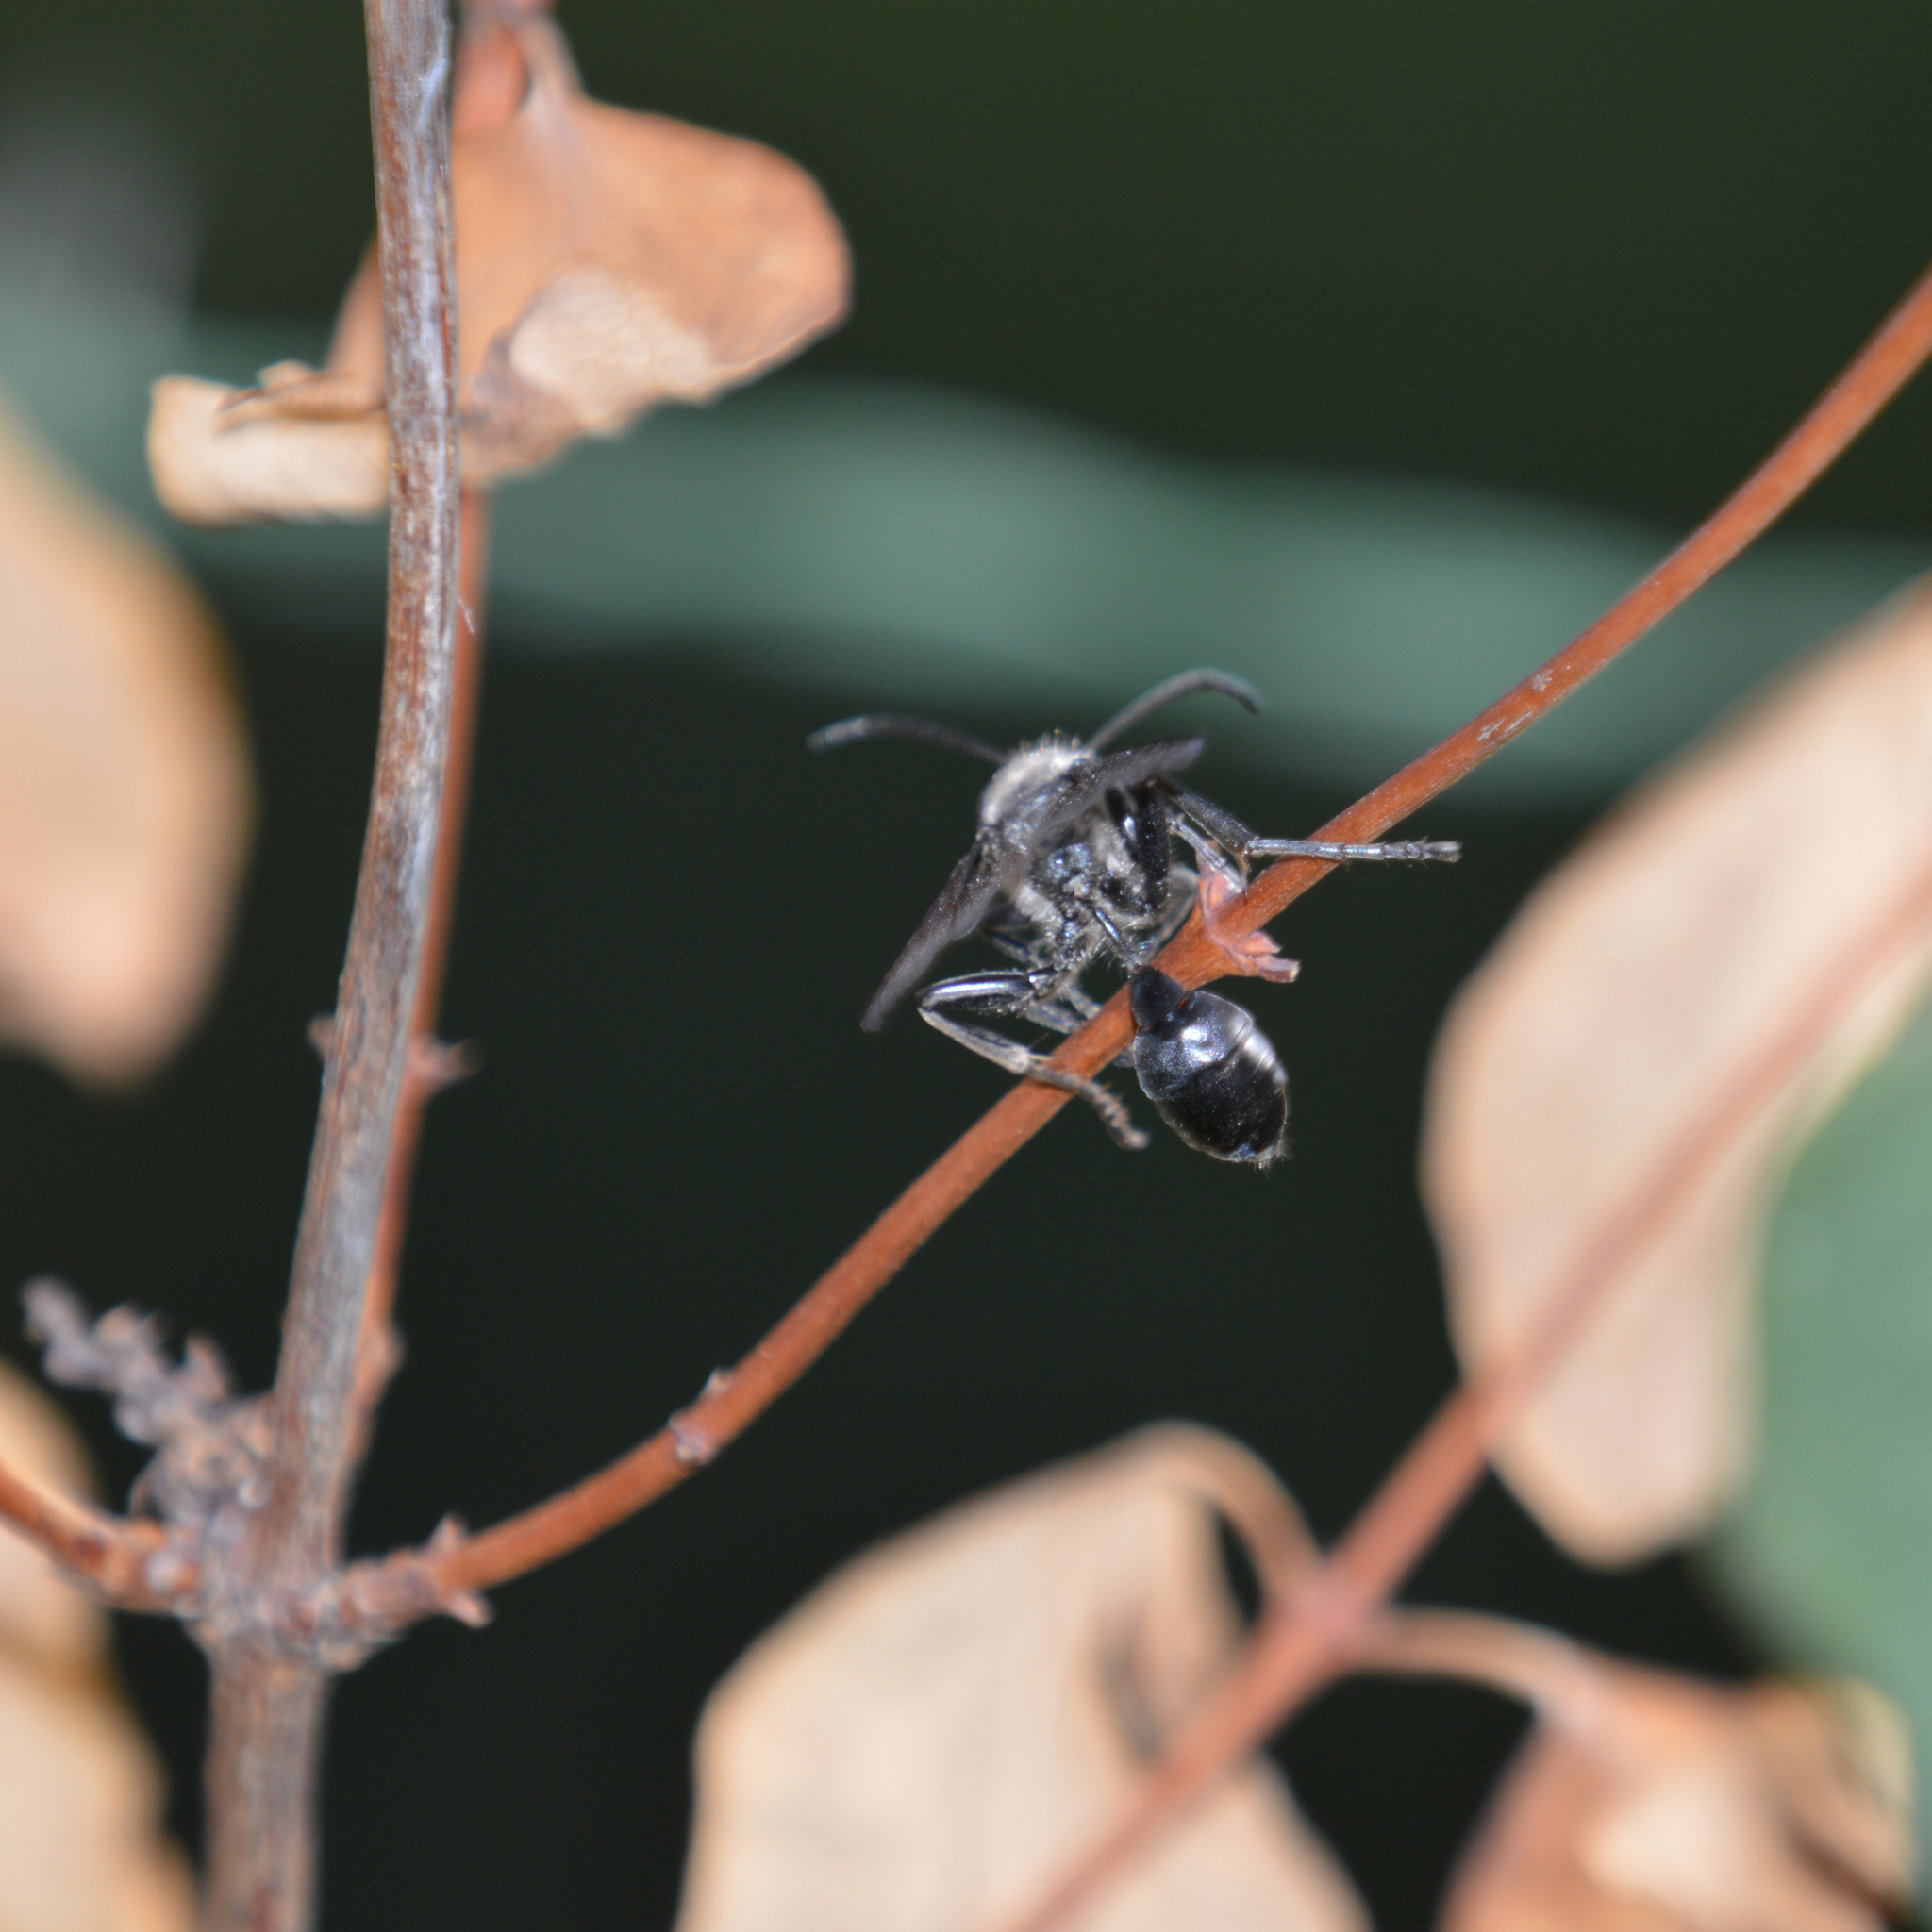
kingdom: Animalia
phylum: Arthropoda
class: Insecta
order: Hymenoptera
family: Sphecidae
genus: Isodontia
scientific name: Isodontia mexicana
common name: Mud dauber
